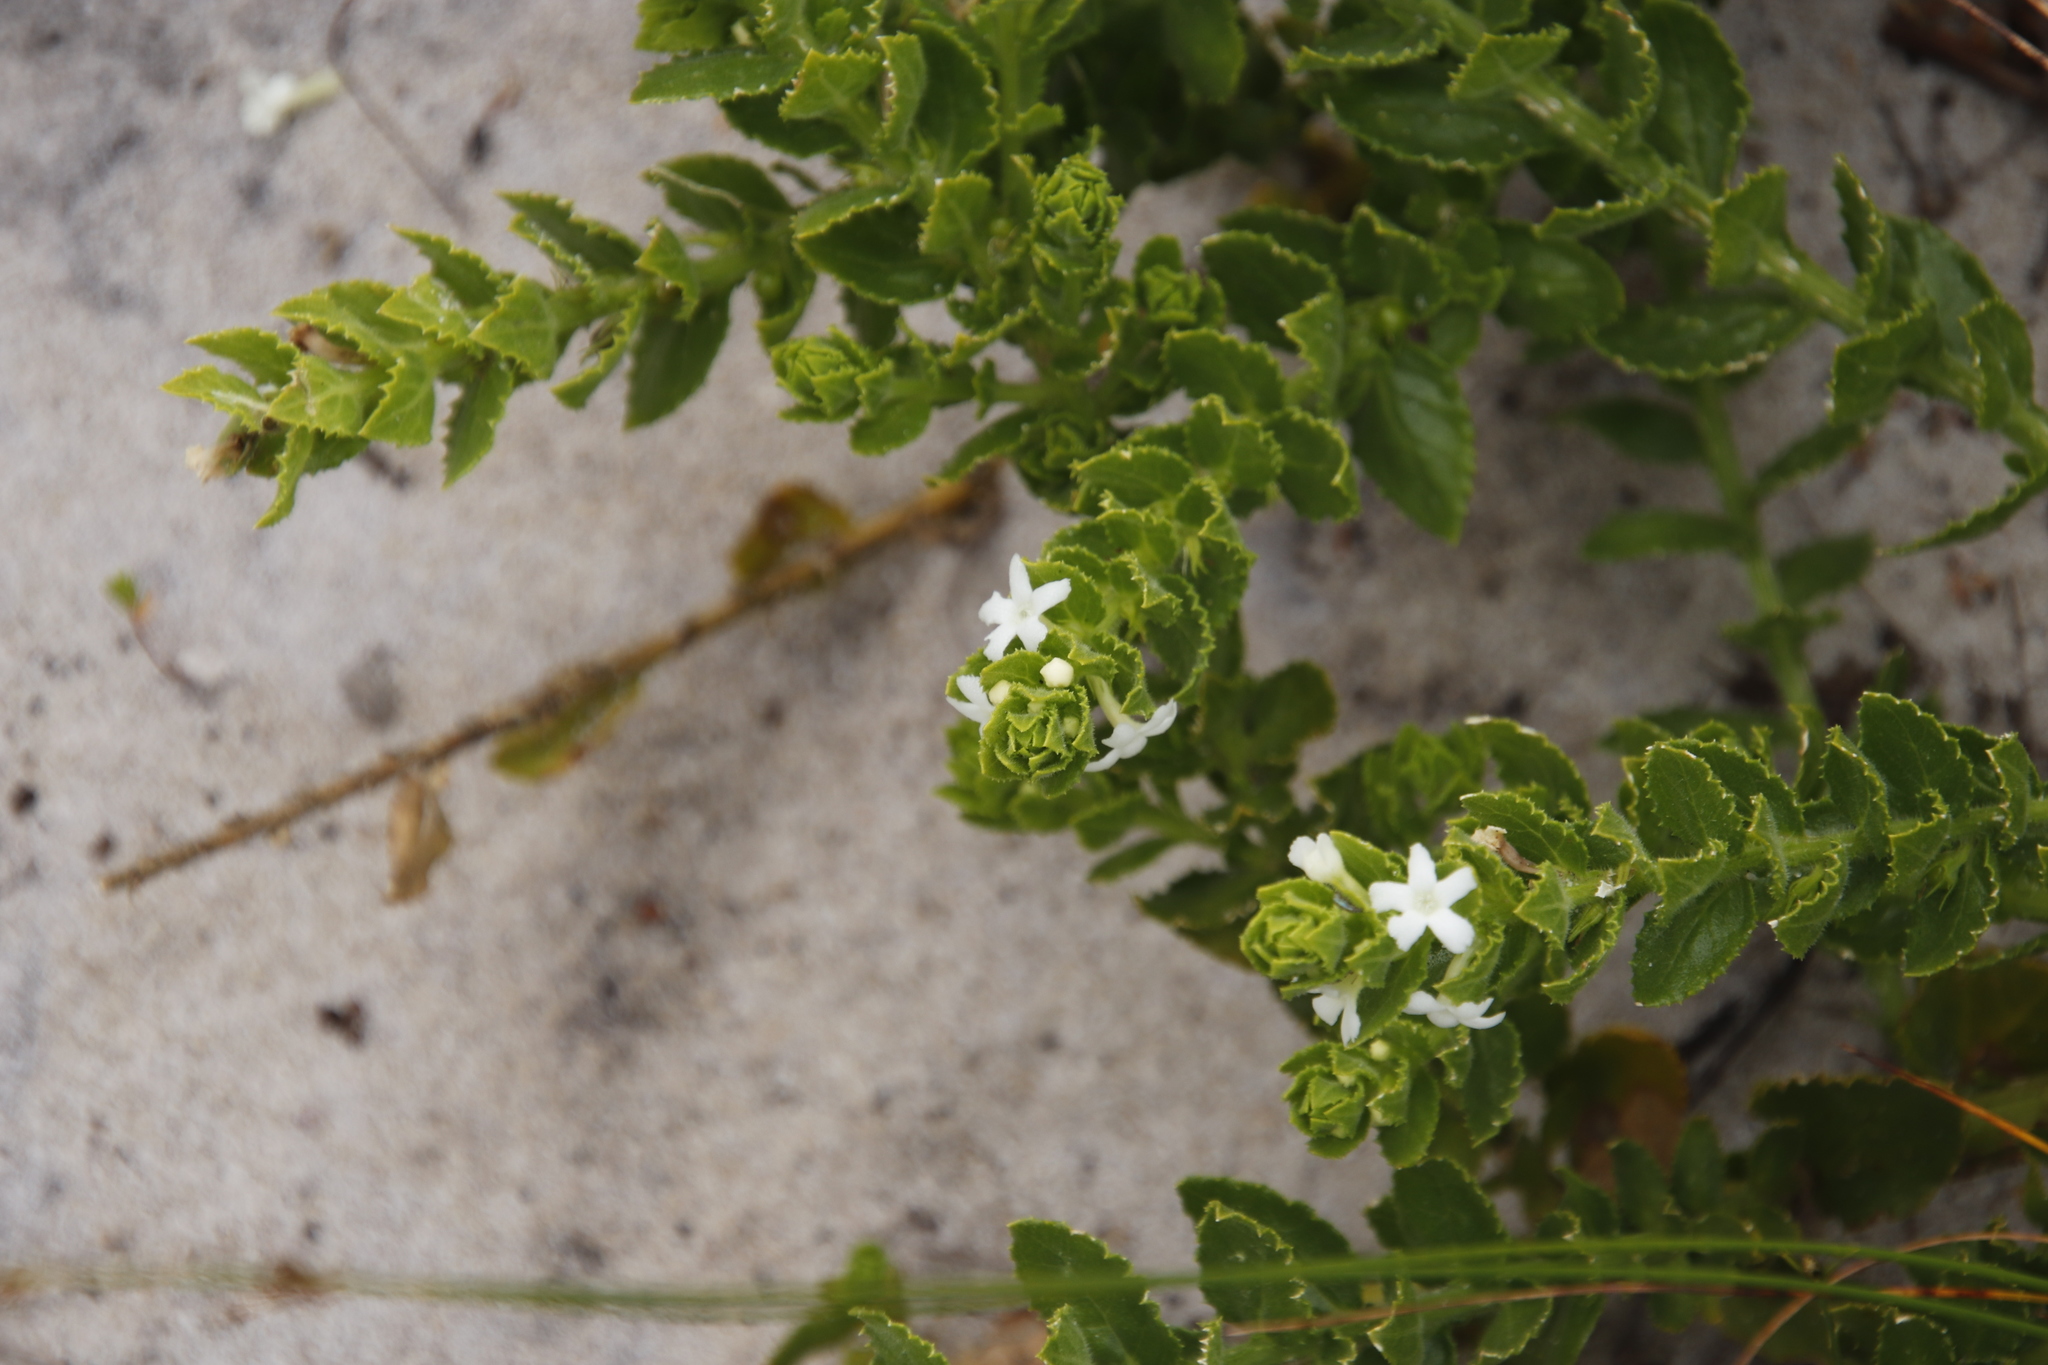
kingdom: Plantae
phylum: Tracheophyta
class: Magnoliopsida
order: Lamiales
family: Scrophulariaceae
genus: Oftia
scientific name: Oftia africana
